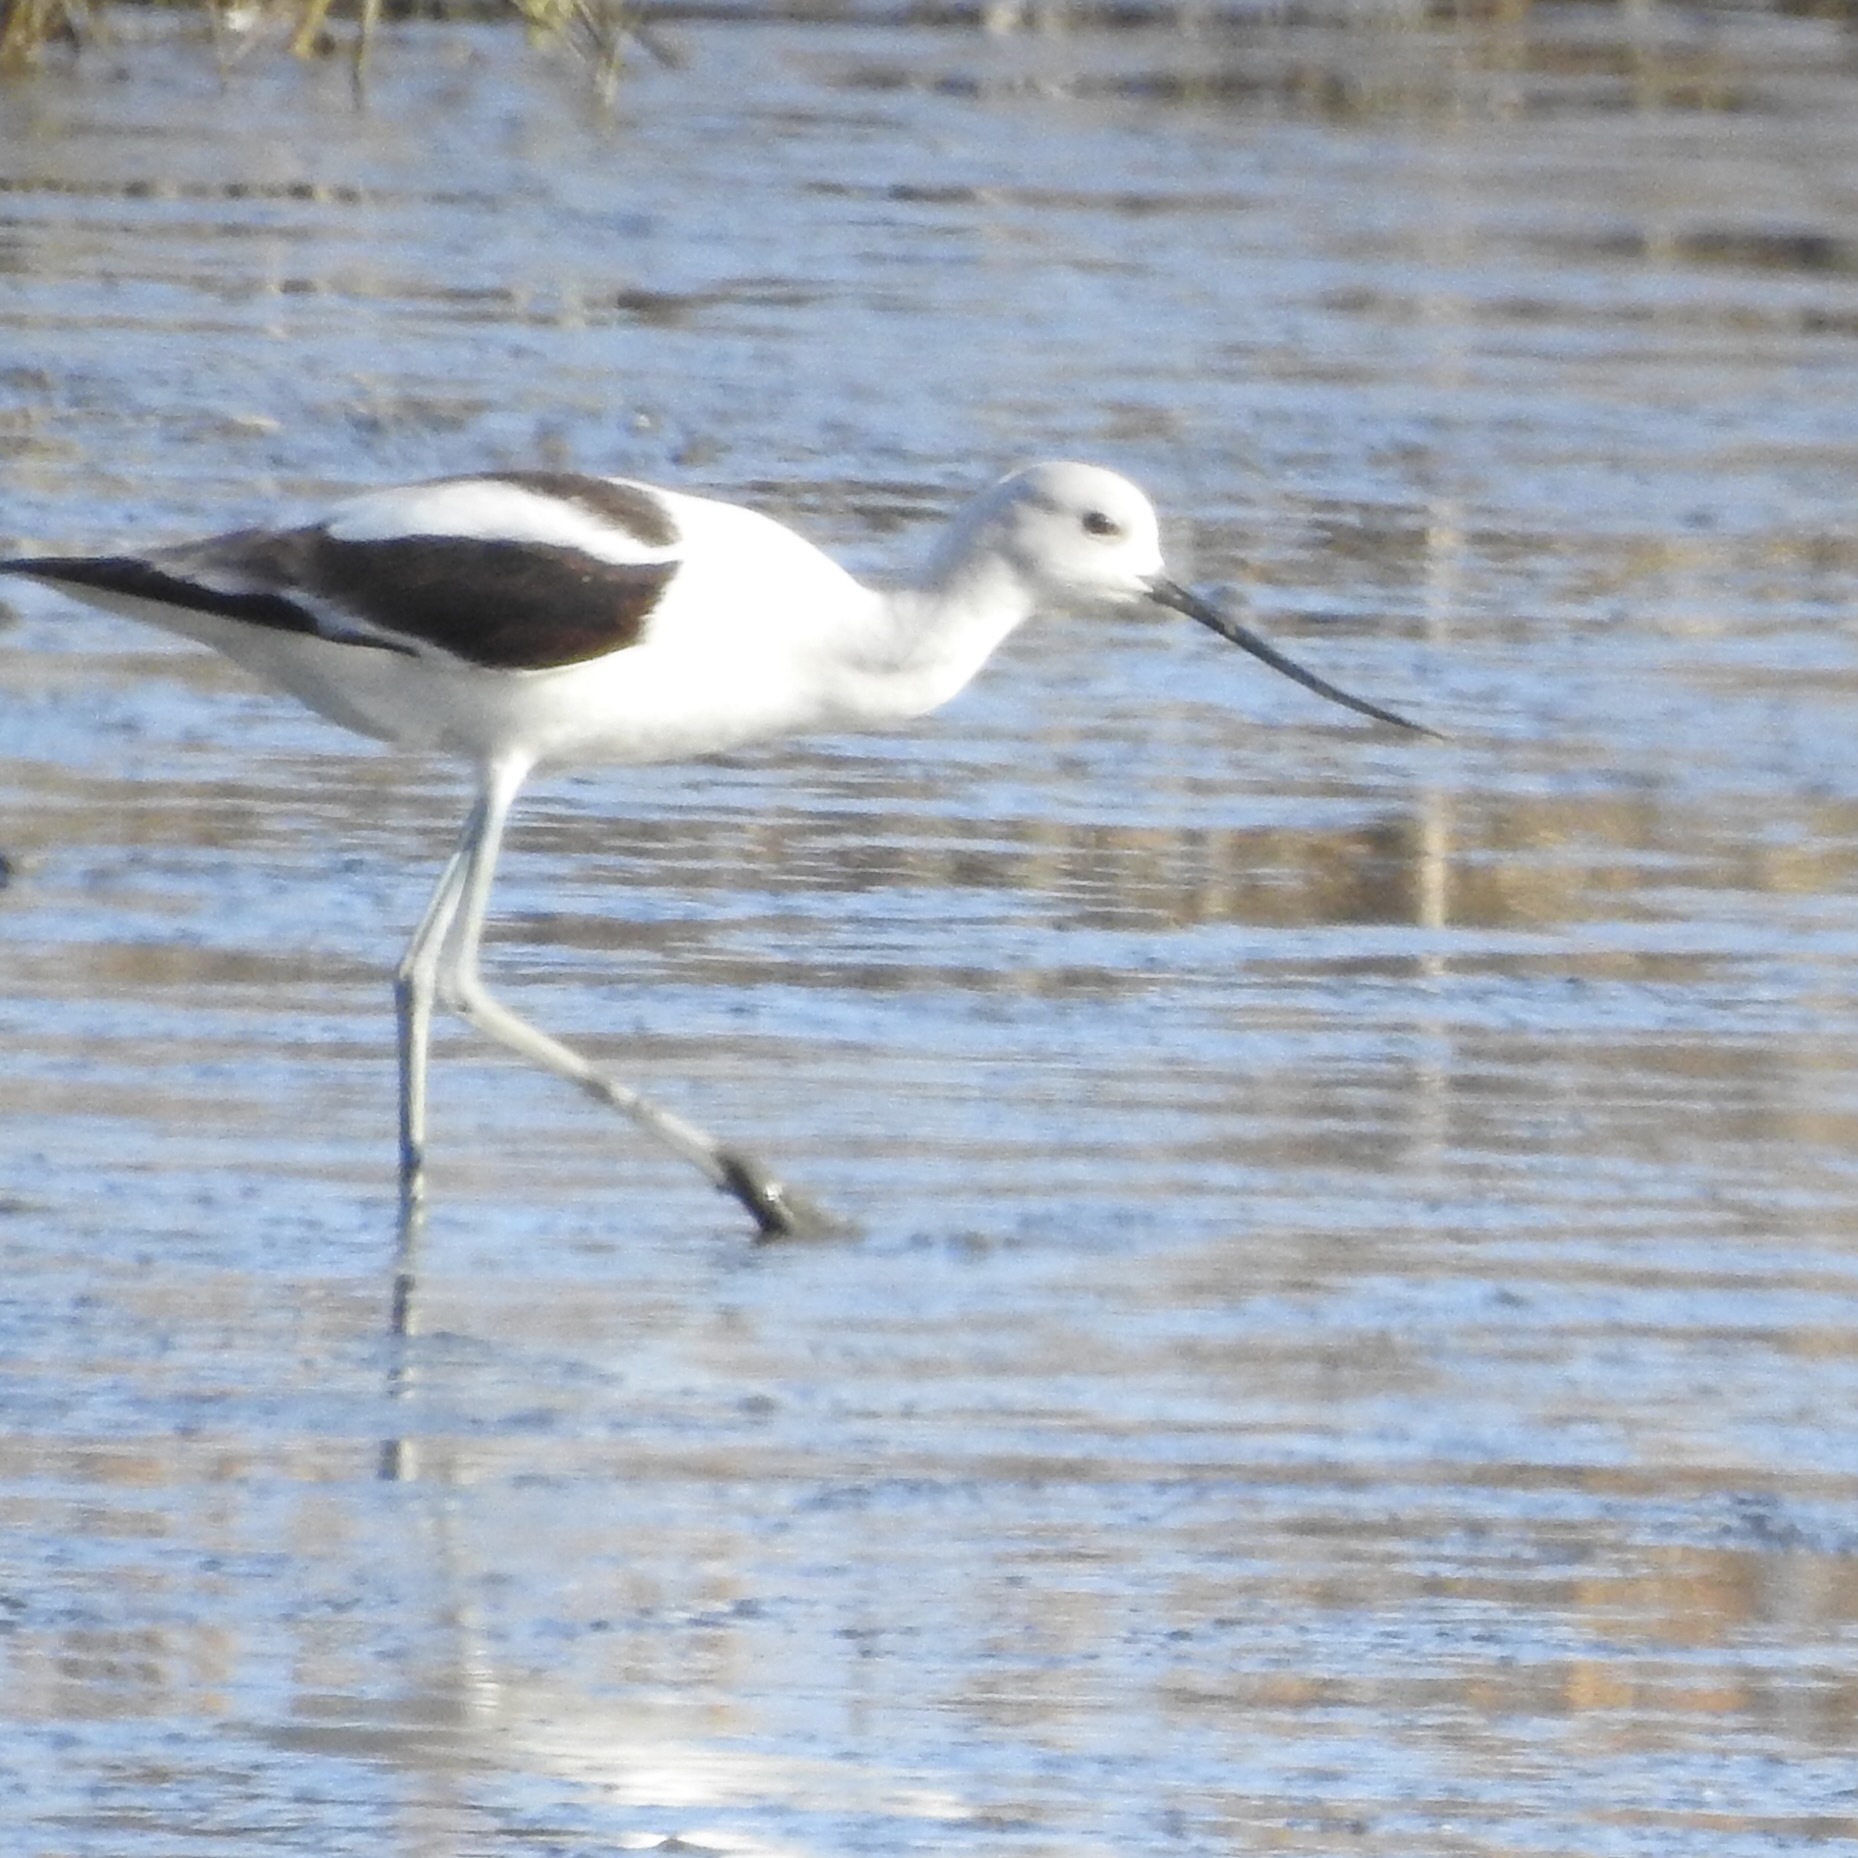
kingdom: Animalia
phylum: Chordata
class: Aves
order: Charadriiformes
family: Recurvirostridae
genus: Recurvirostra
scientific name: Recurvirostra americana
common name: American avocet
